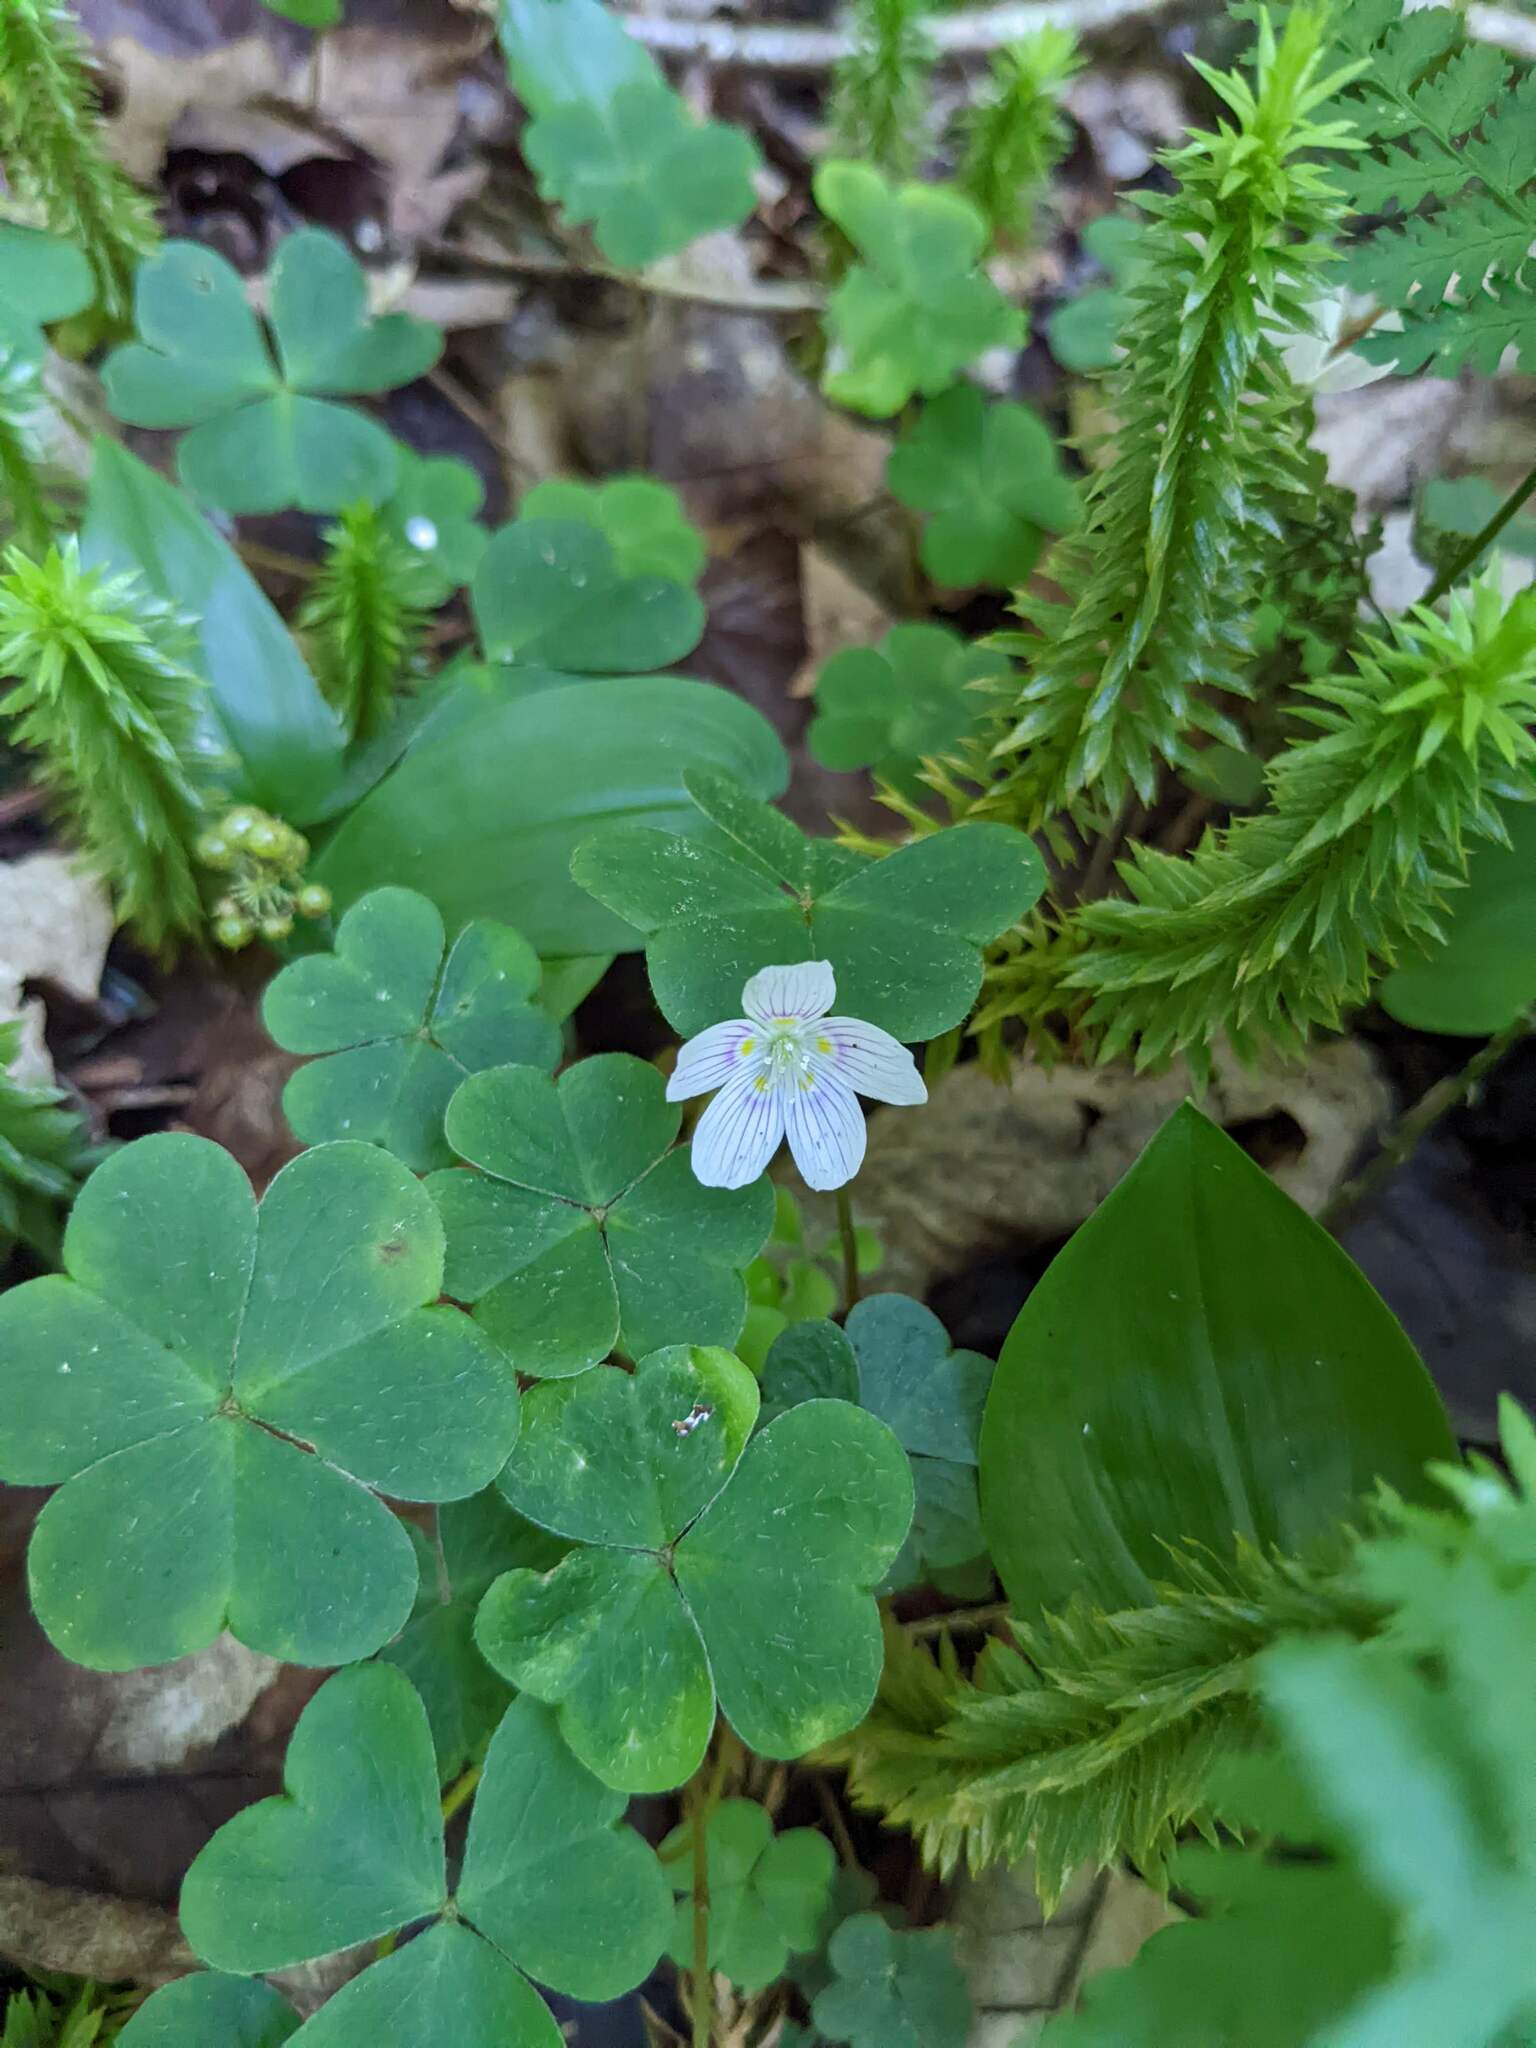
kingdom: Plantae
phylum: Tracheophyta
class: Magnoliopsida
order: Oxalidales
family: Oxalidaceae
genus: Oxalis
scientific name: Oxalis montana
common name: American wood-sorrel
